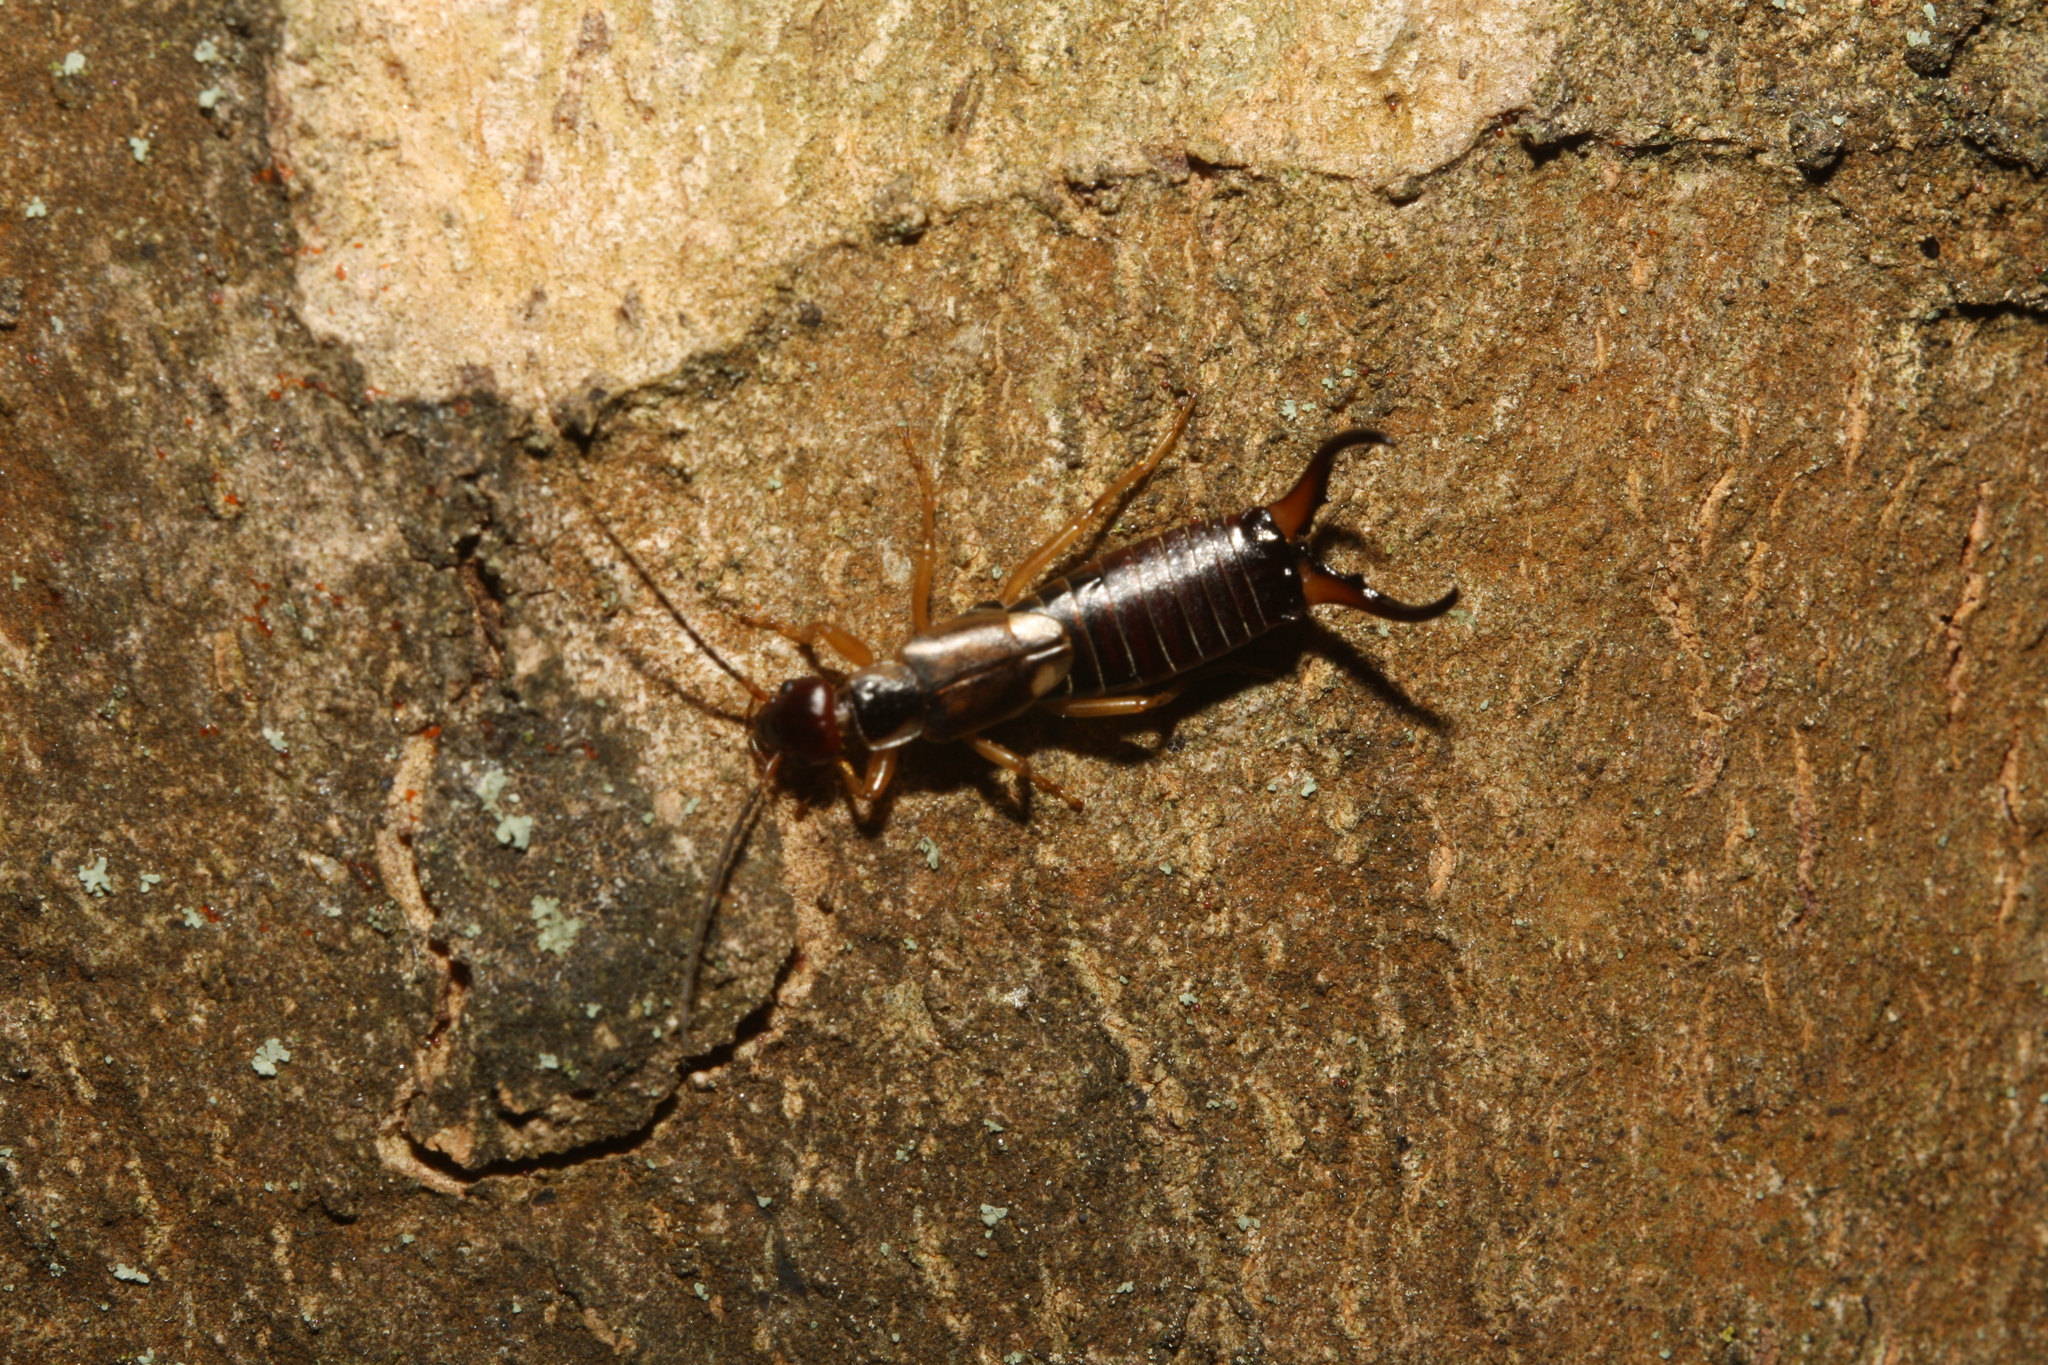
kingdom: Animalia
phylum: Arthropoda
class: Insecta
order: Dermaptera
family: Forficulidae
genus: Forficula
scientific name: Forficula
